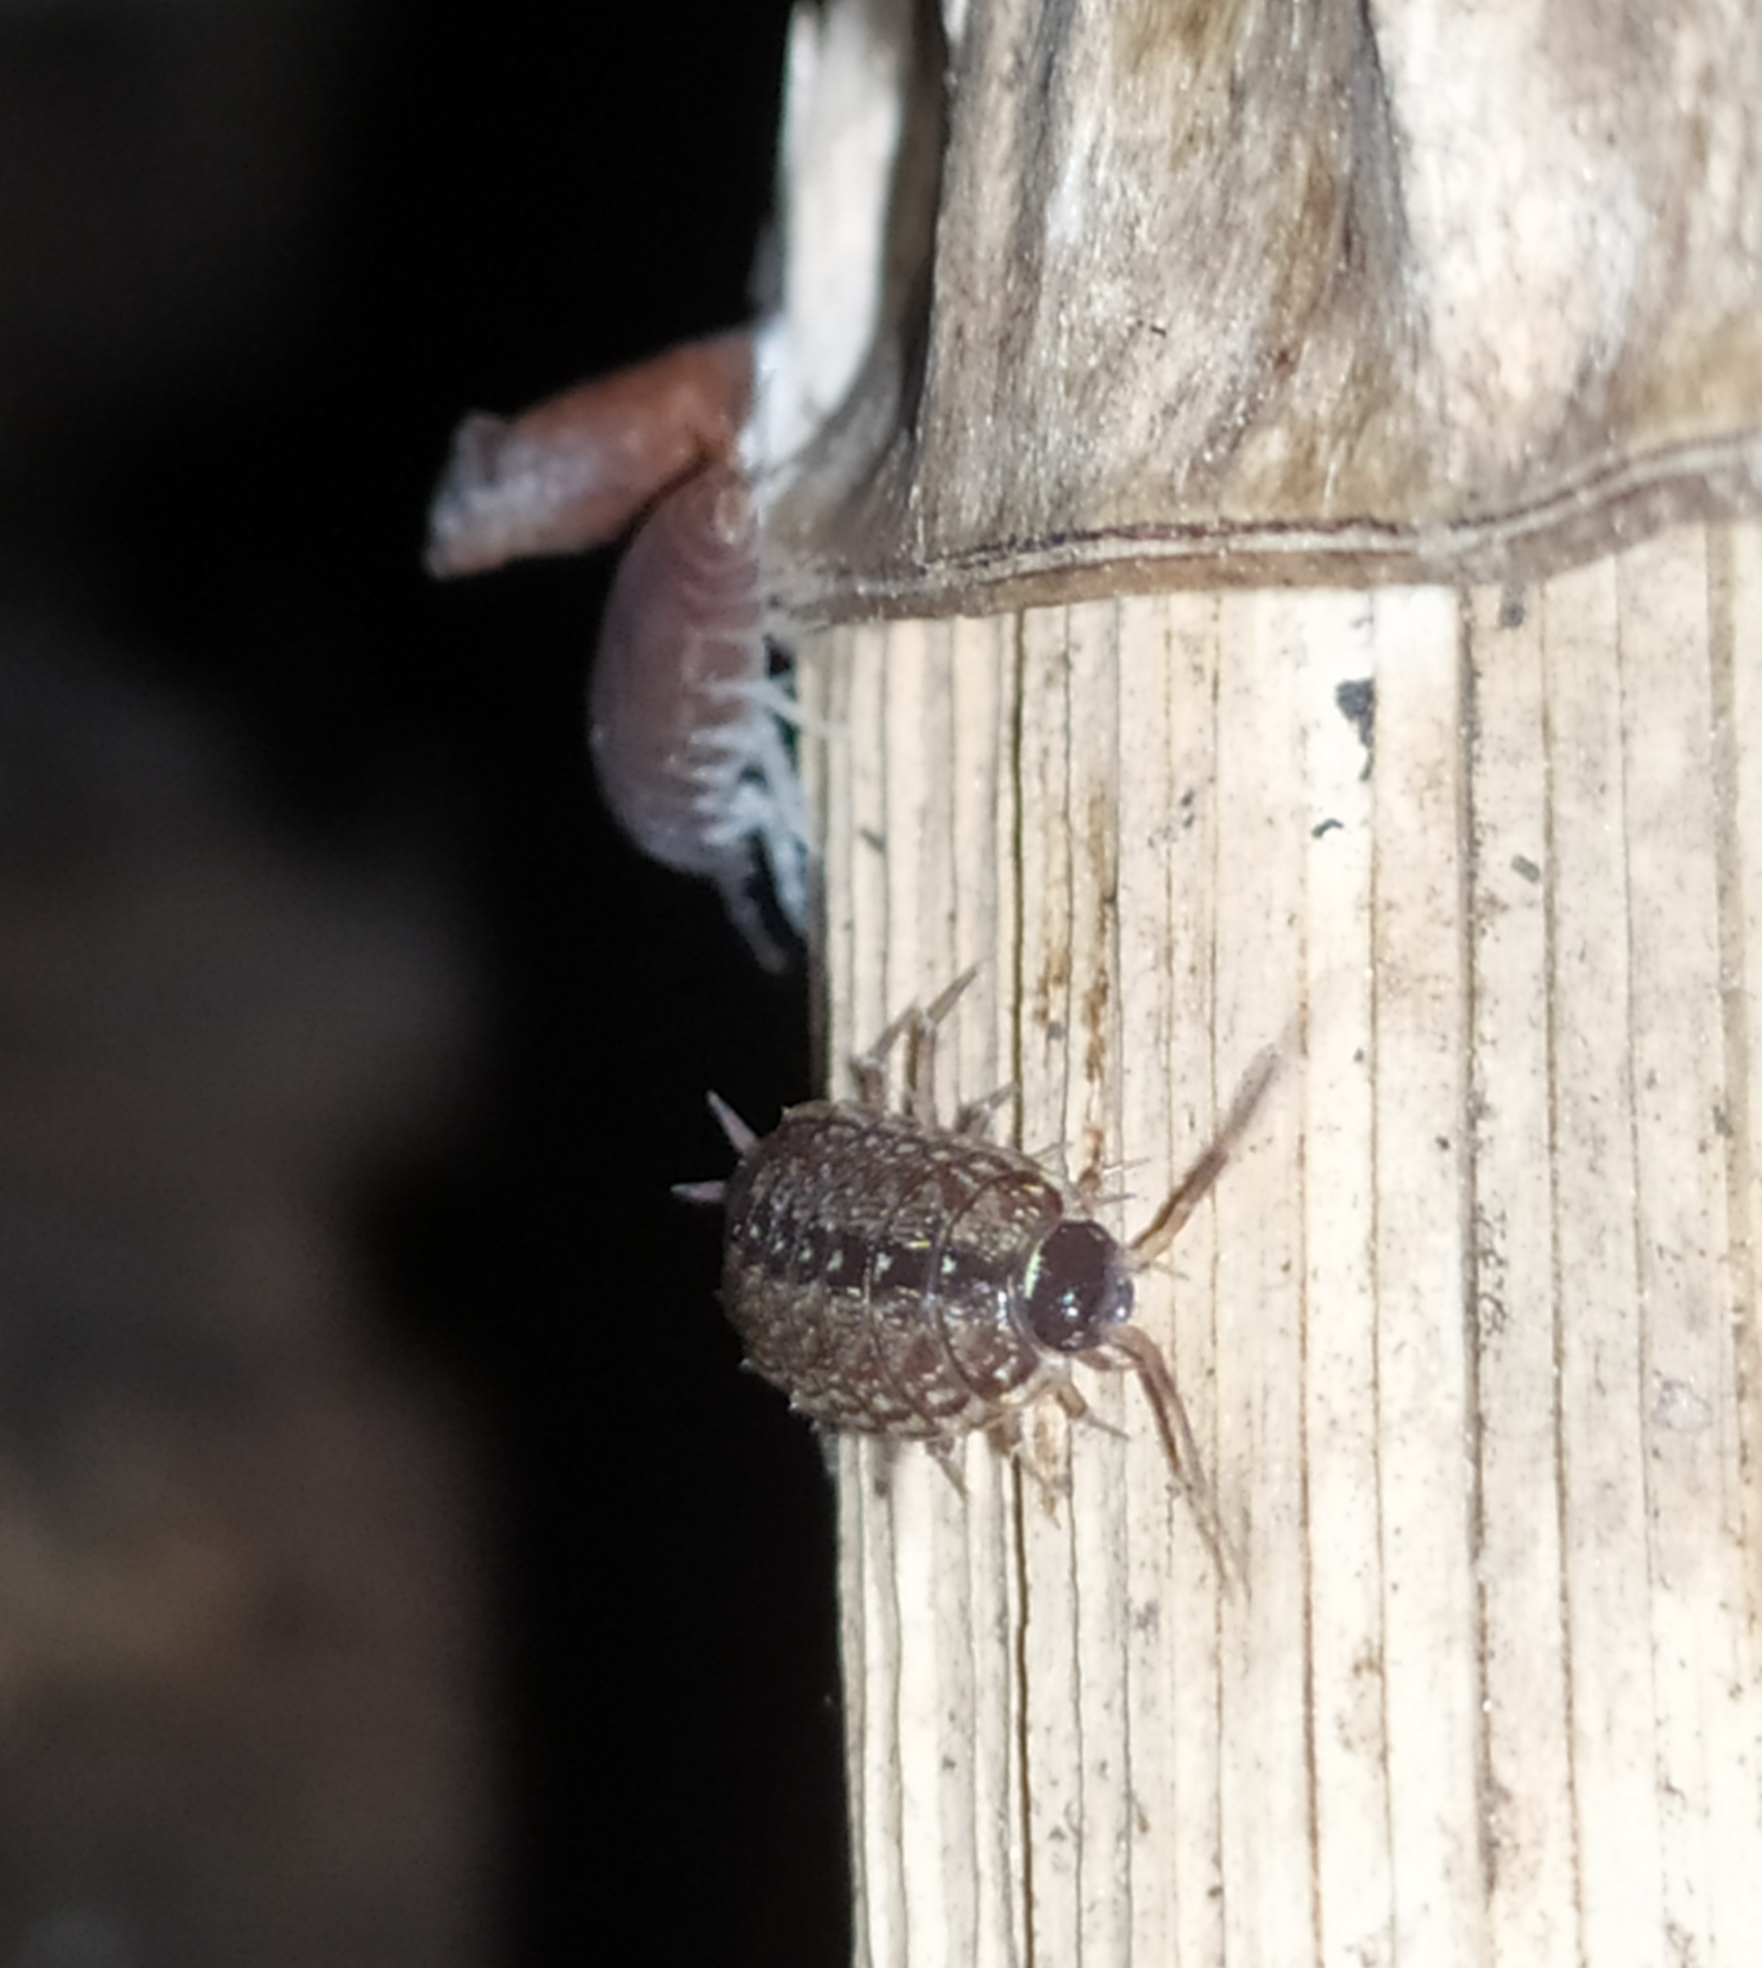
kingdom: Animalia
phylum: Arthropoda
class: Malacostraca
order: Isopoda
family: Philosciidae
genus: Philoscia
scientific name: Philoscia muscorum
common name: Common striped woodlouse
